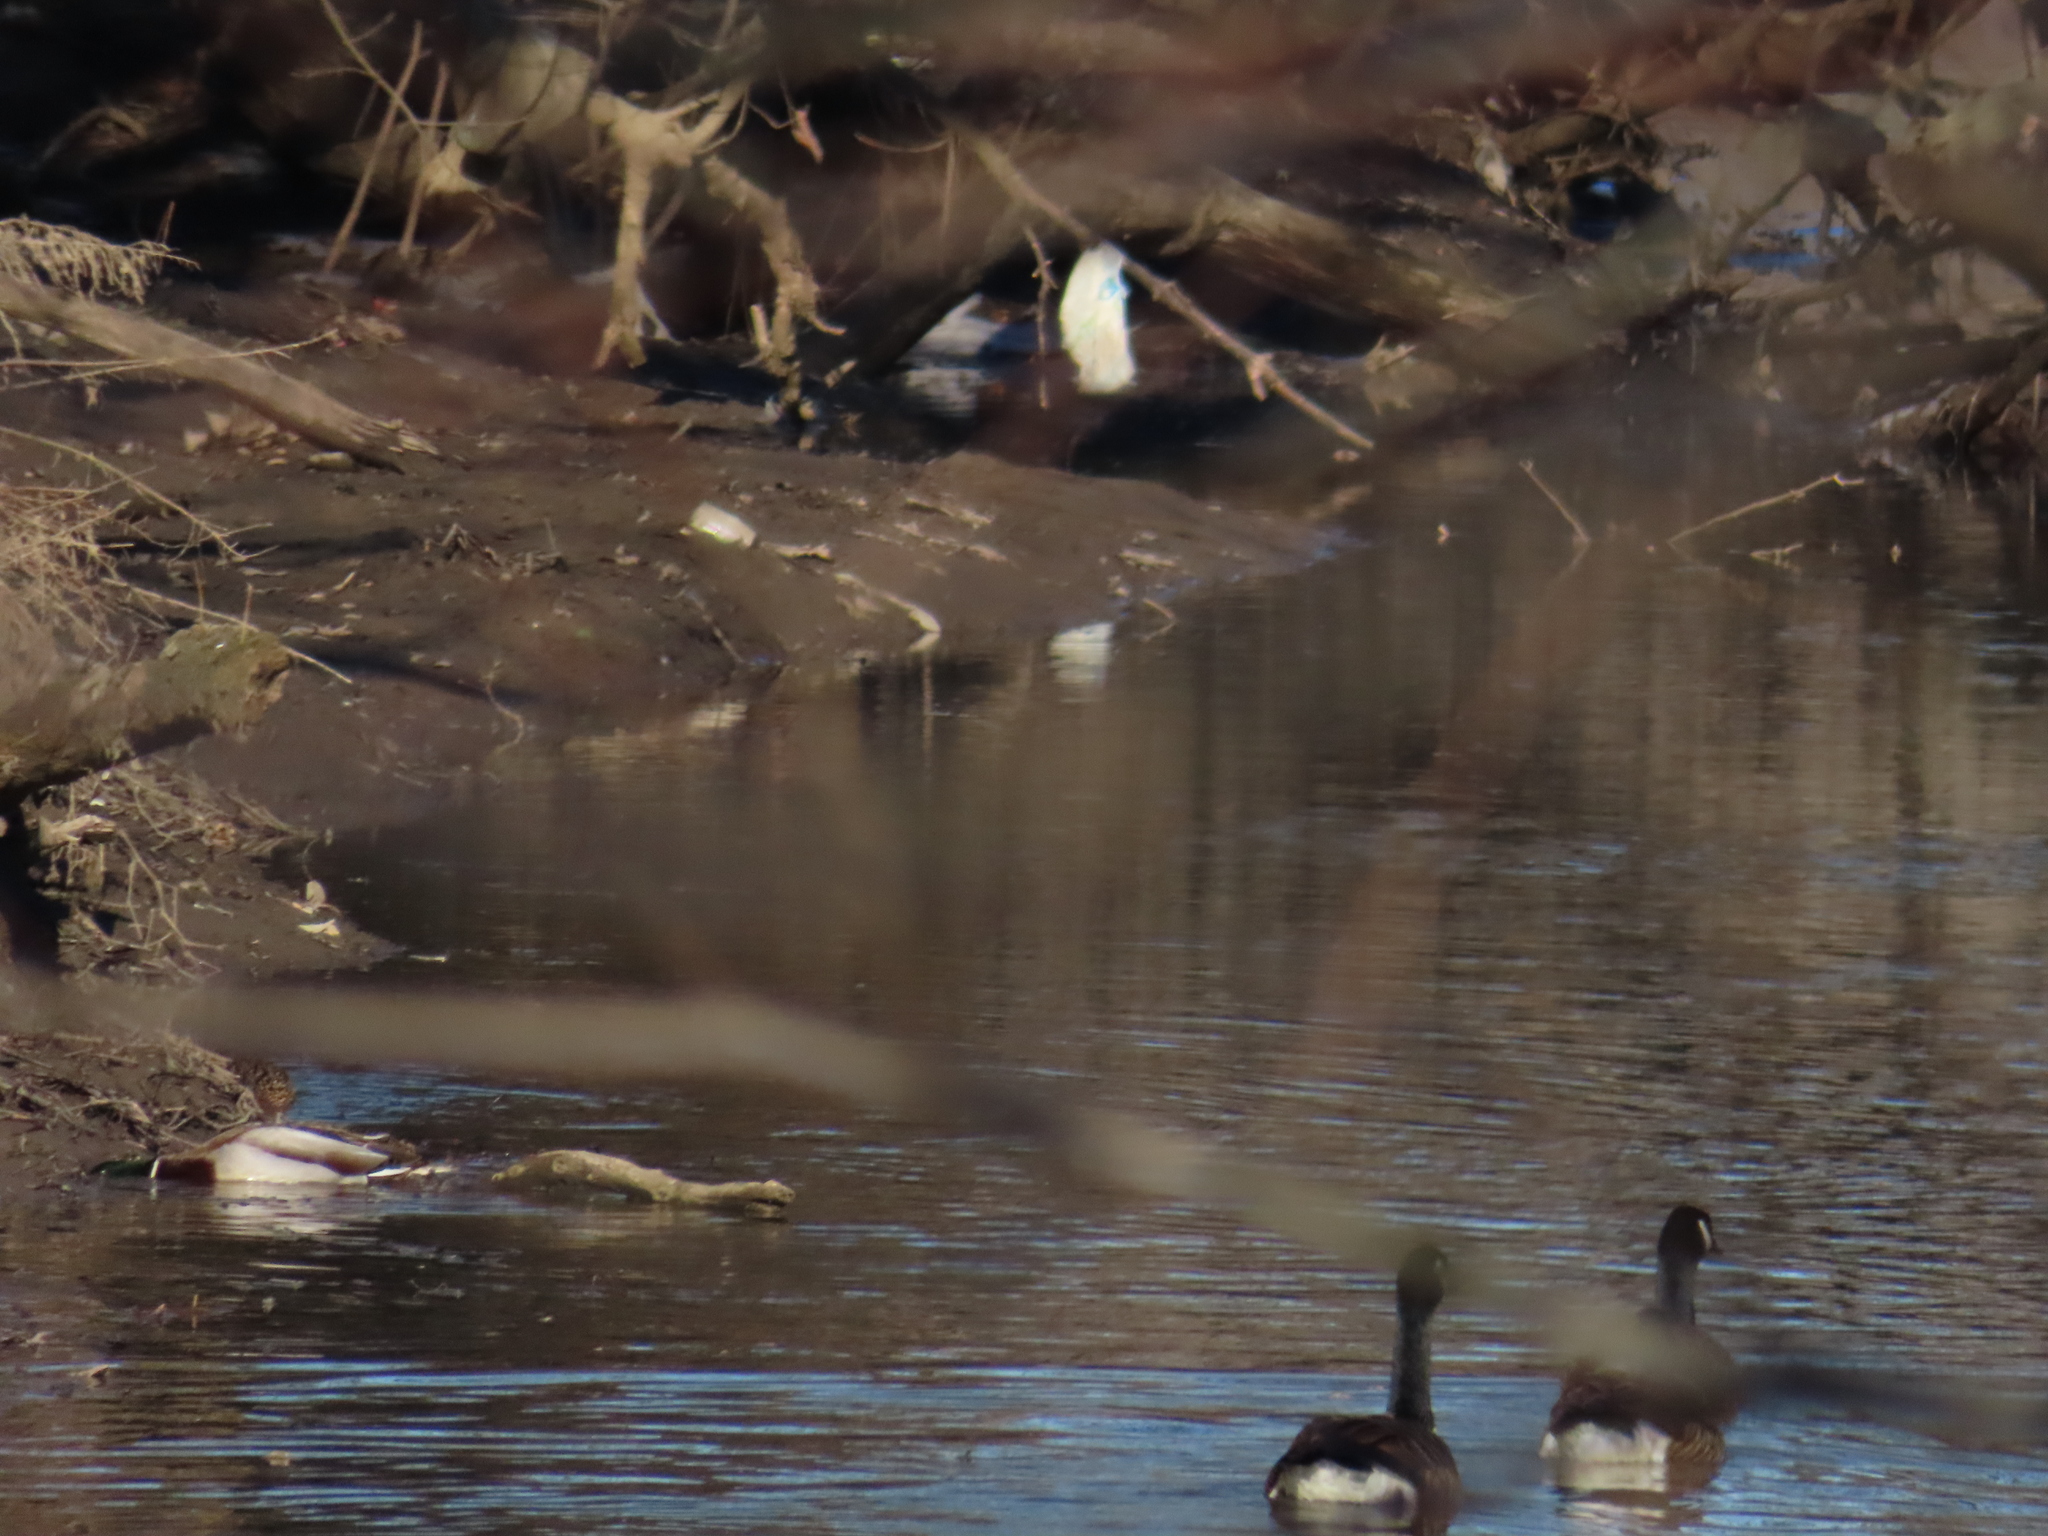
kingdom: Animalia
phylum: Chordata
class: Aves
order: Anseriformes
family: Anatidae
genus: Branta
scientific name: Branta canadensis
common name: Canada goose
